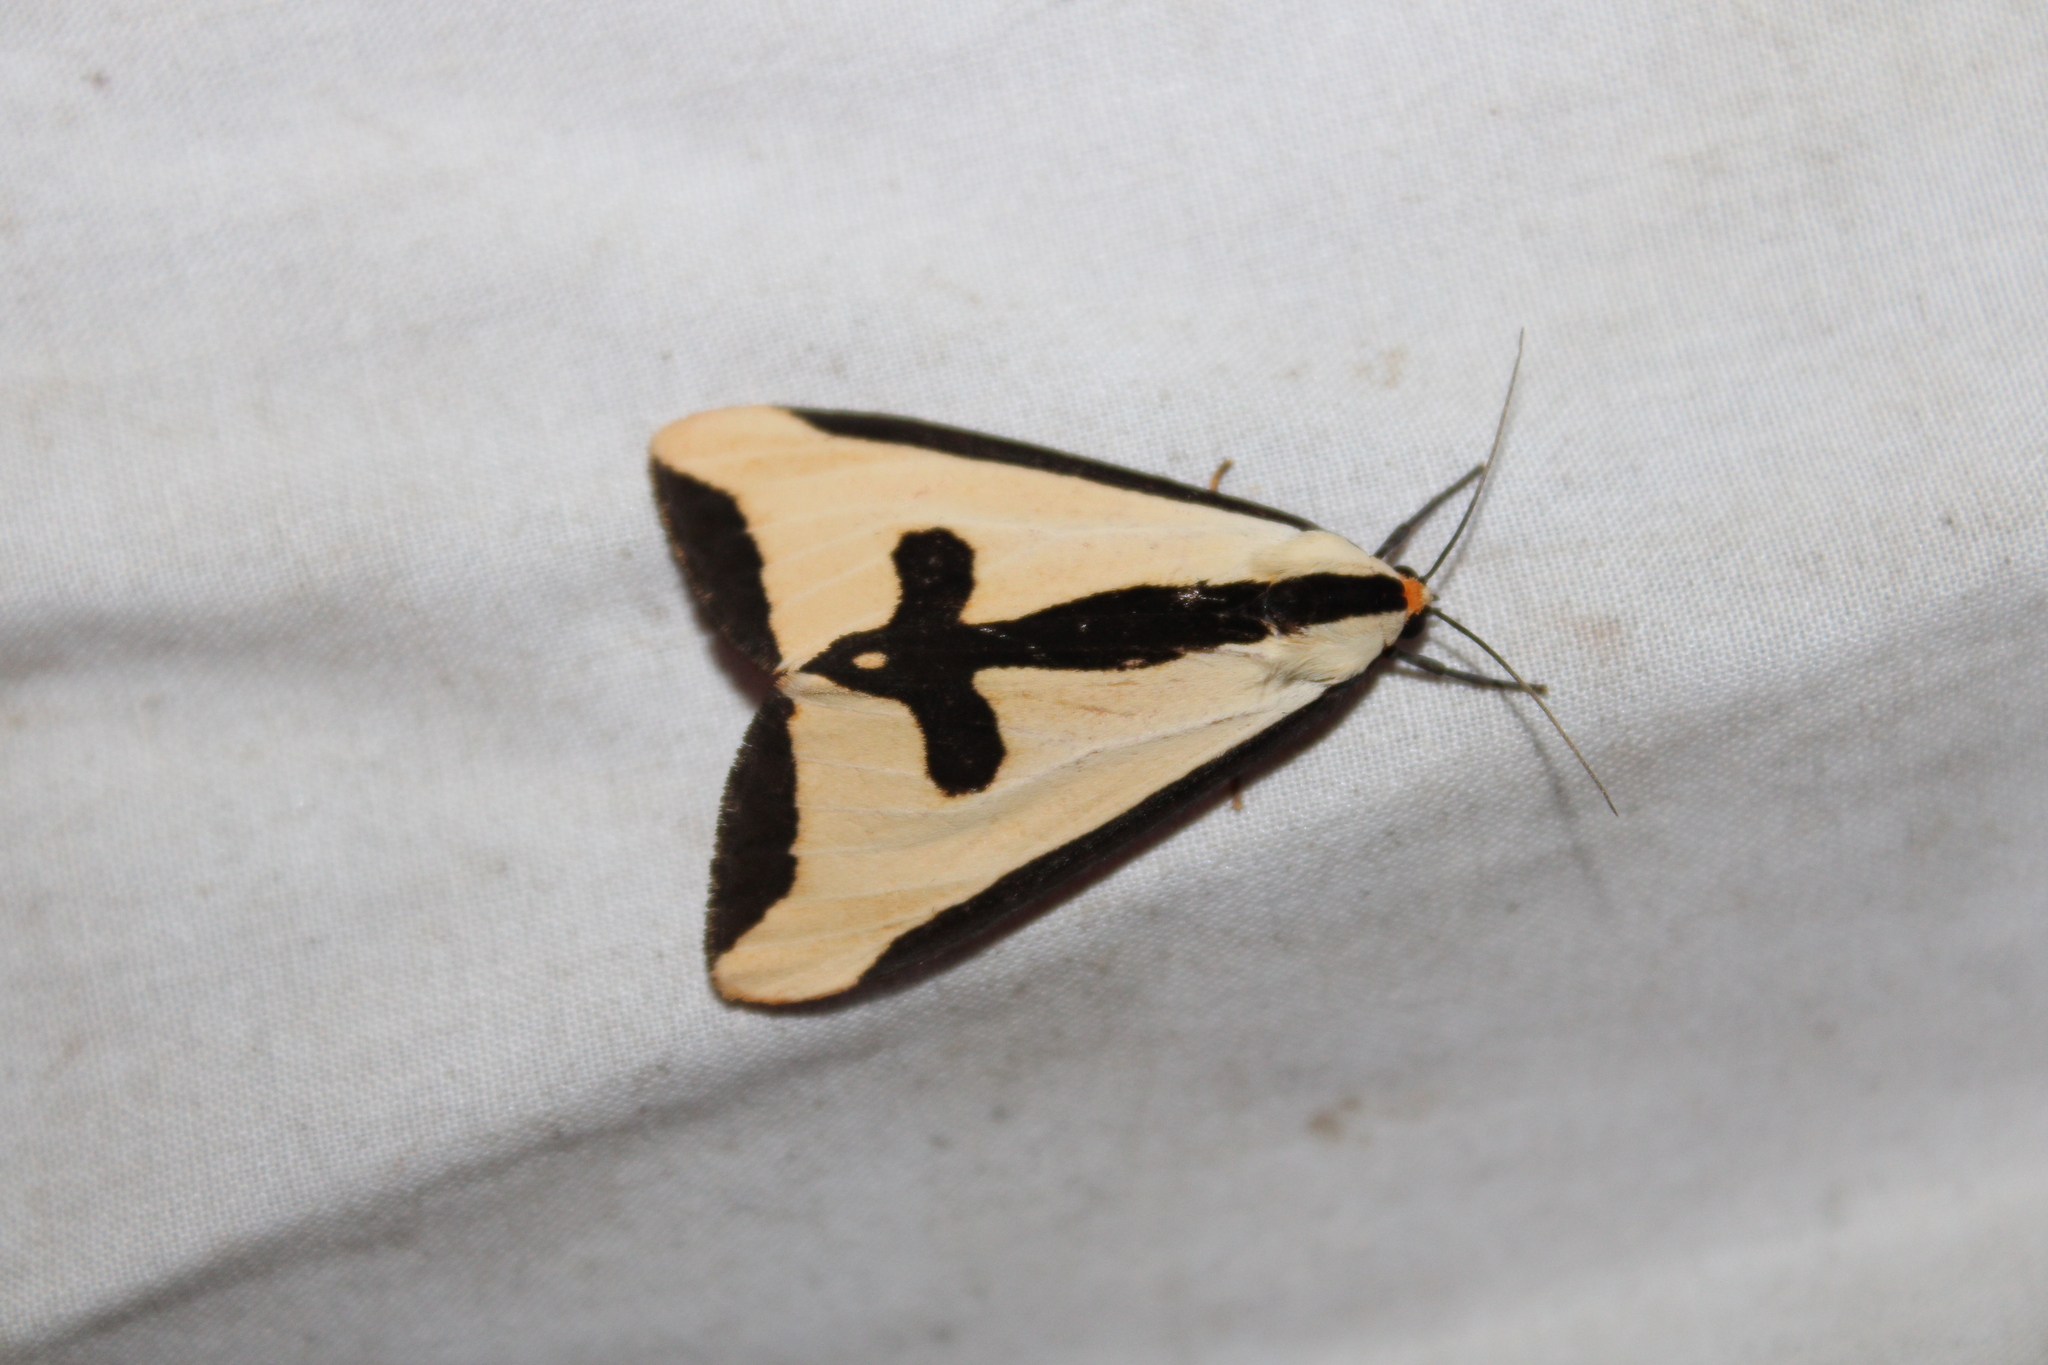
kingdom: Animalia
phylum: Arthropoda
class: Insecta
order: Lepidoptera
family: Erebidae
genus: Haploa
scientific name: Haploa clymene
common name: Clymene moth
